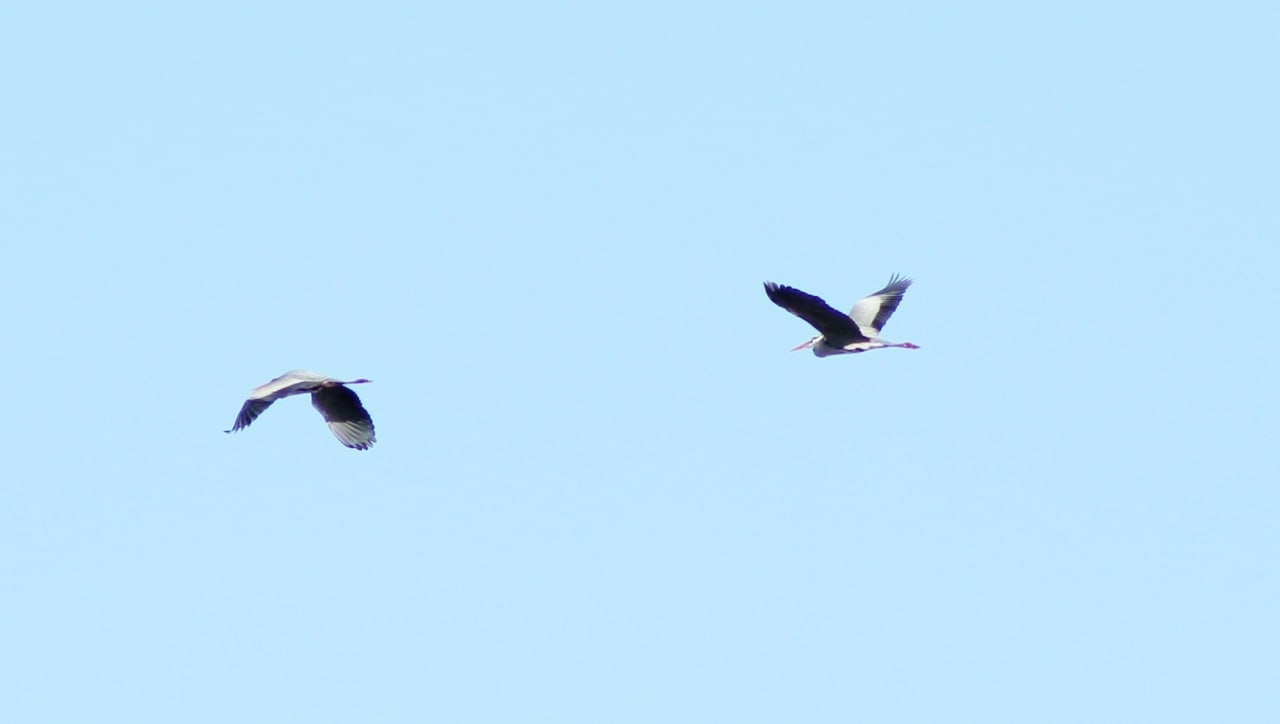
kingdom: Animalia
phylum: Chordata
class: Aves
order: Pelecaniformes
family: Ardeidae
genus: Ardea
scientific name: Ardea cinerea
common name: Grey heron
